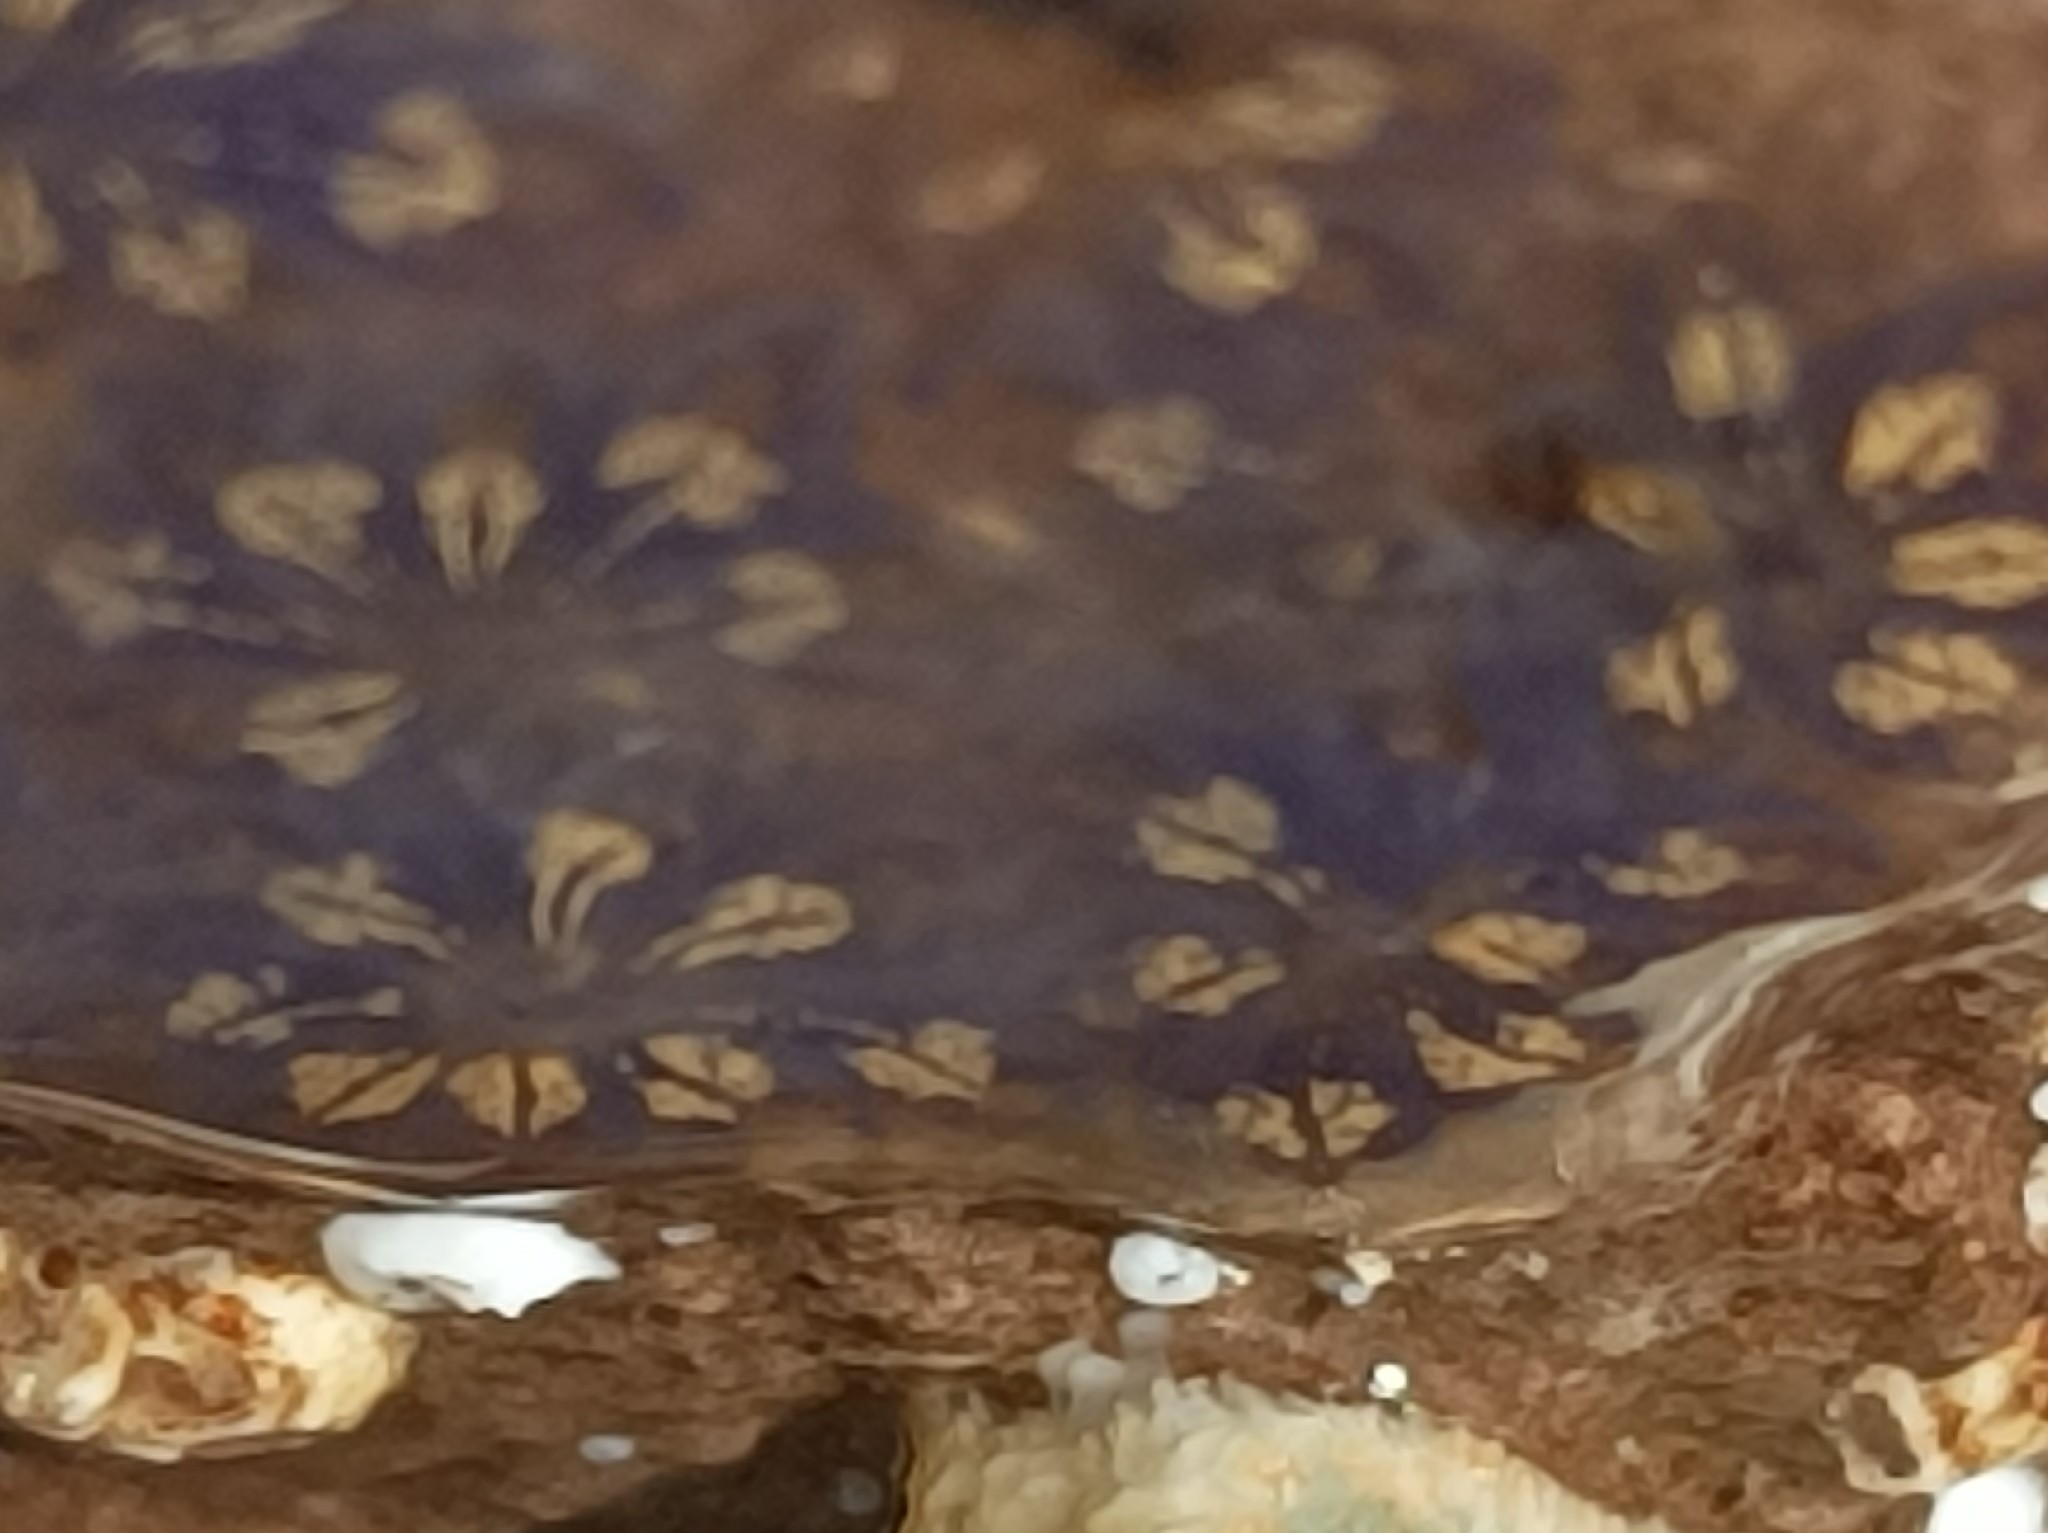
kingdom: Animalia
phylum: Chordata
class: Ascidiacea
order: Stolidobranchia
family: Styelidae
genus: Botryllus
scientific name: Botryllus schlosseri
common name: Golden star tunicate
